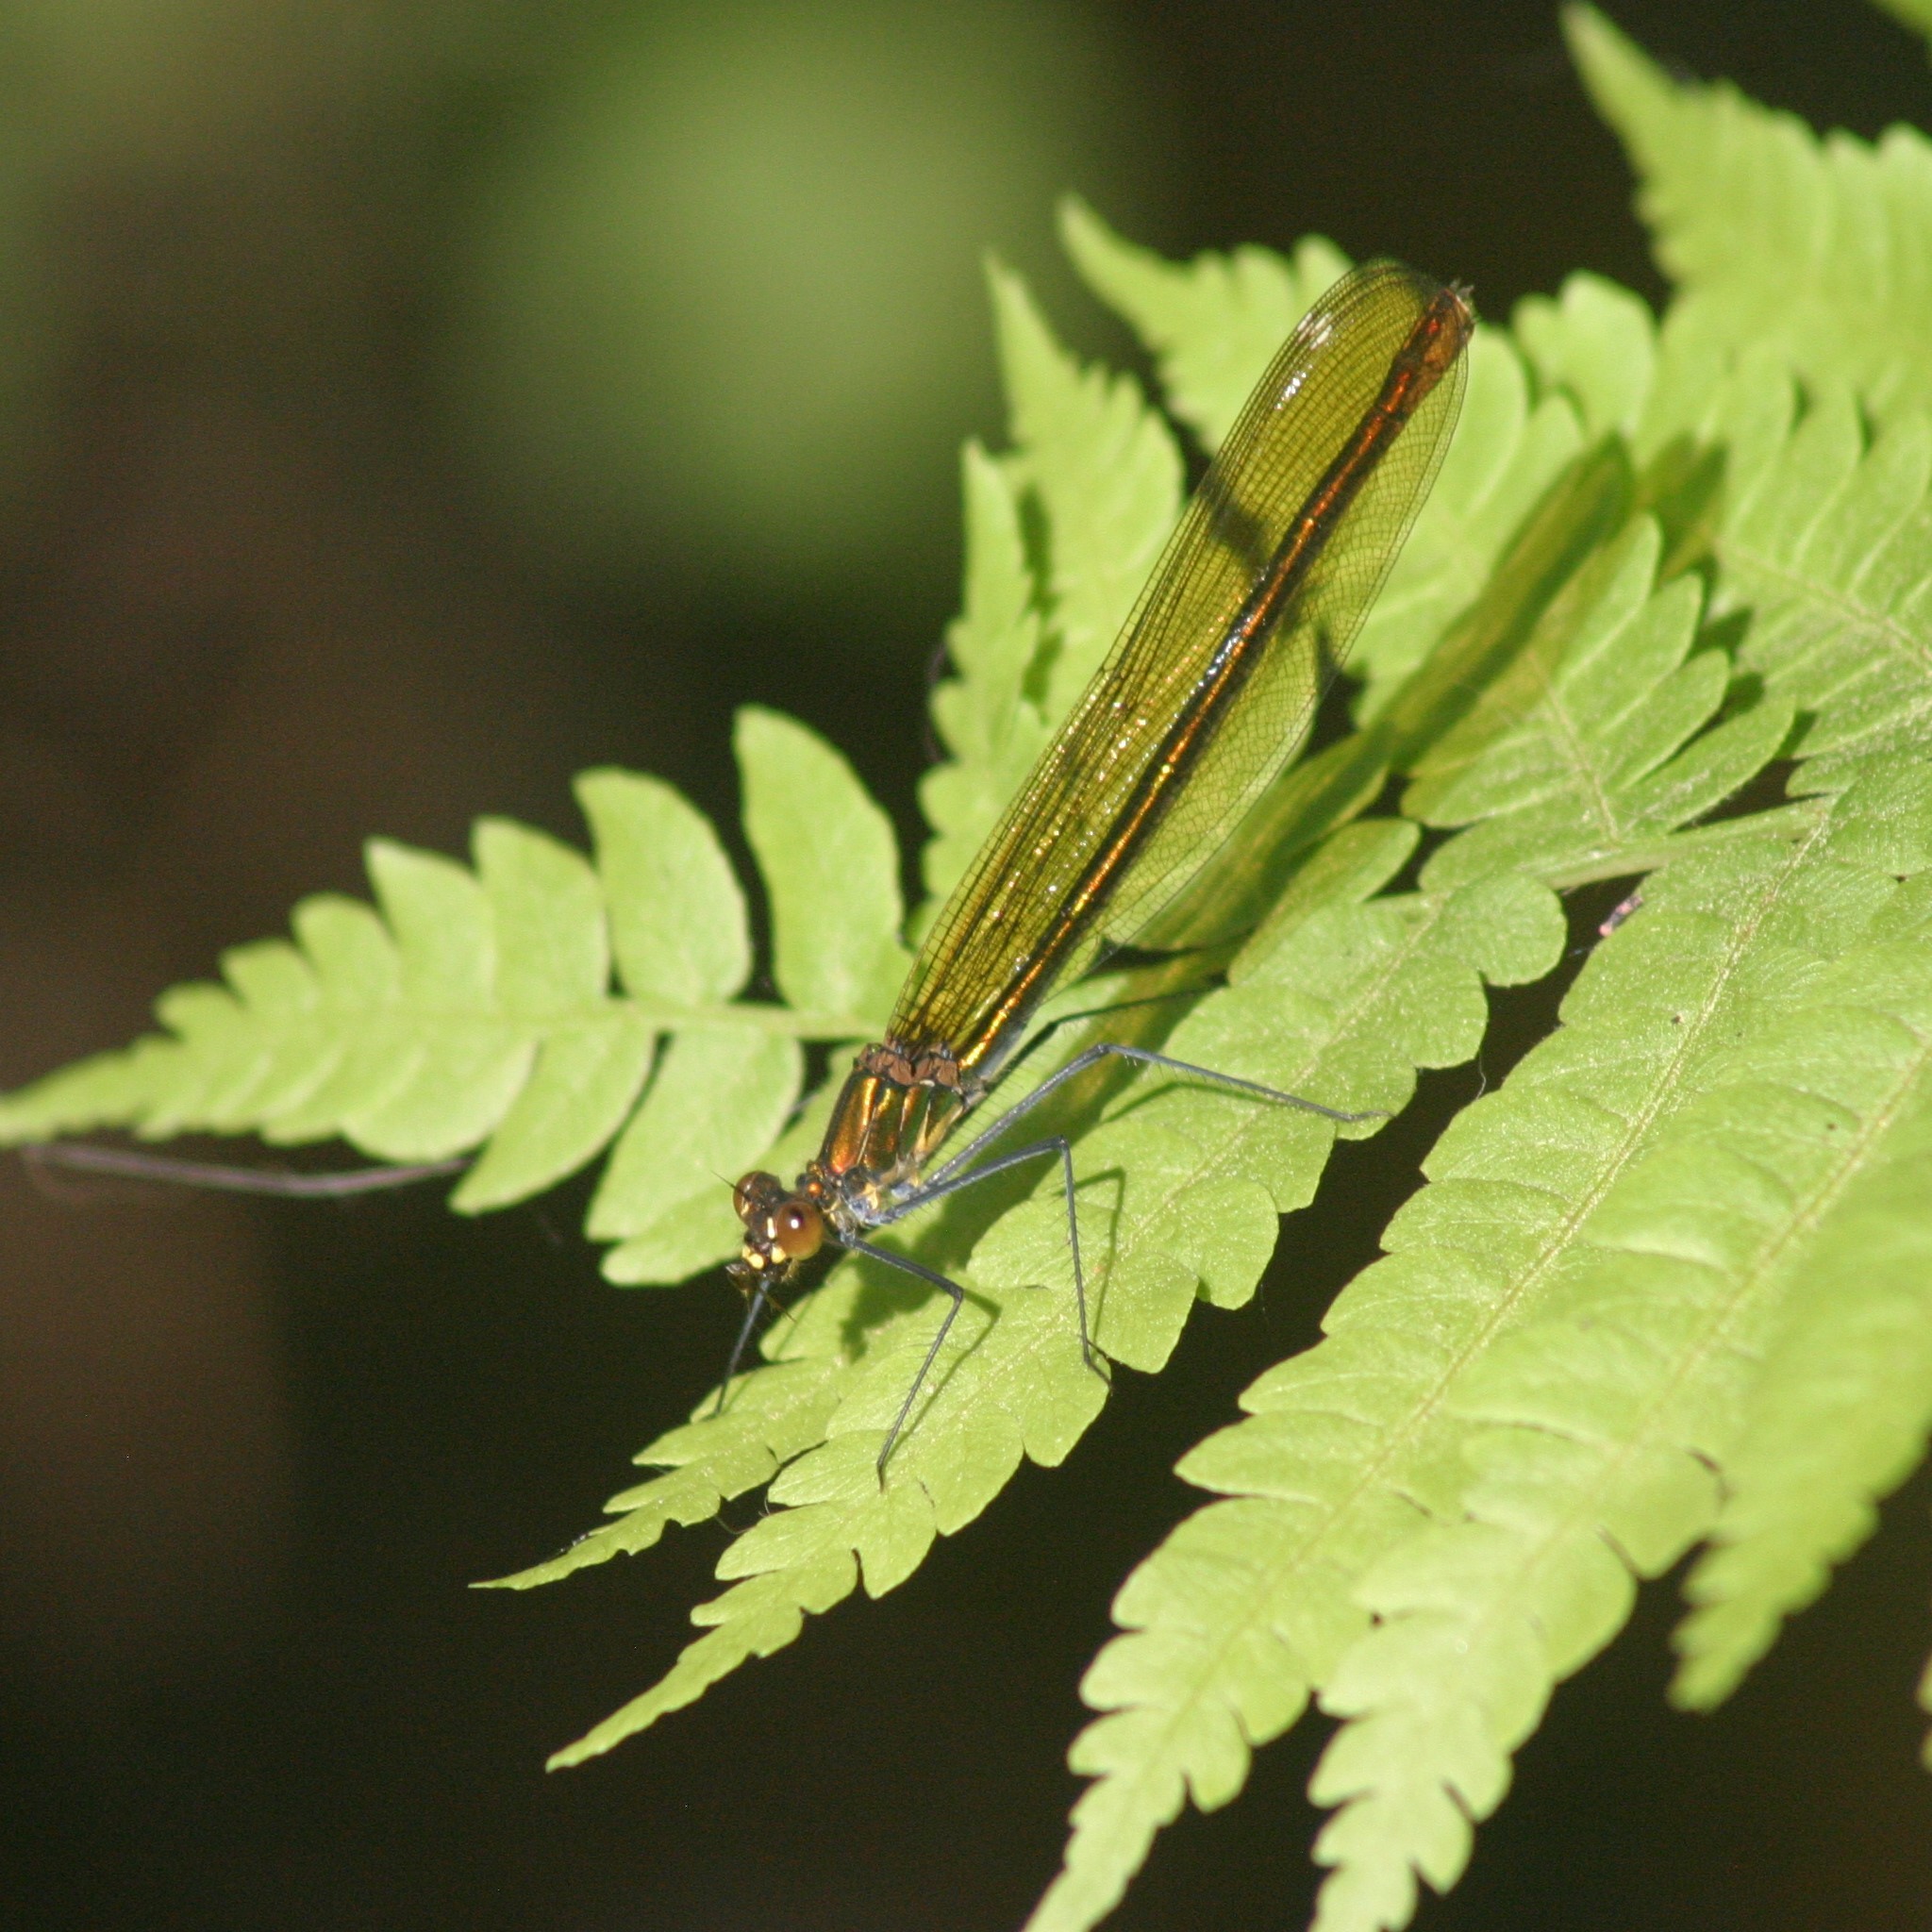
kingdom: Animalia
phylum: Arthropoda
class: Insecta
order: Odonata
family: Calopterygidae
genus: Calopteryx
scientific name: Calopteryx amata
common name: Superb jewelwing
